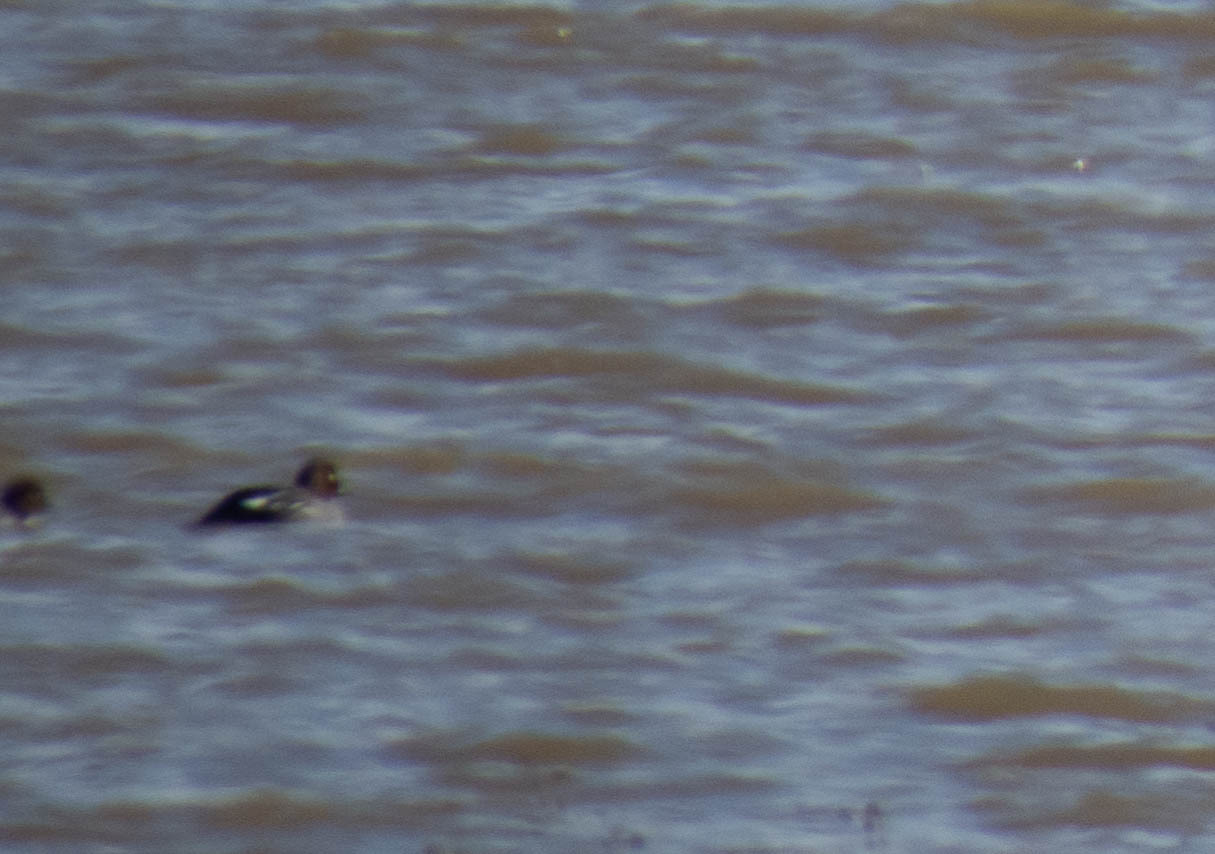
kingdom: Animalia
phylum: Chordata
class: Aves
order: Anseriformes
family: Anatidae
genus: Bucephala
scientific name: Bucephala clangula
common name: Common goldeneye
